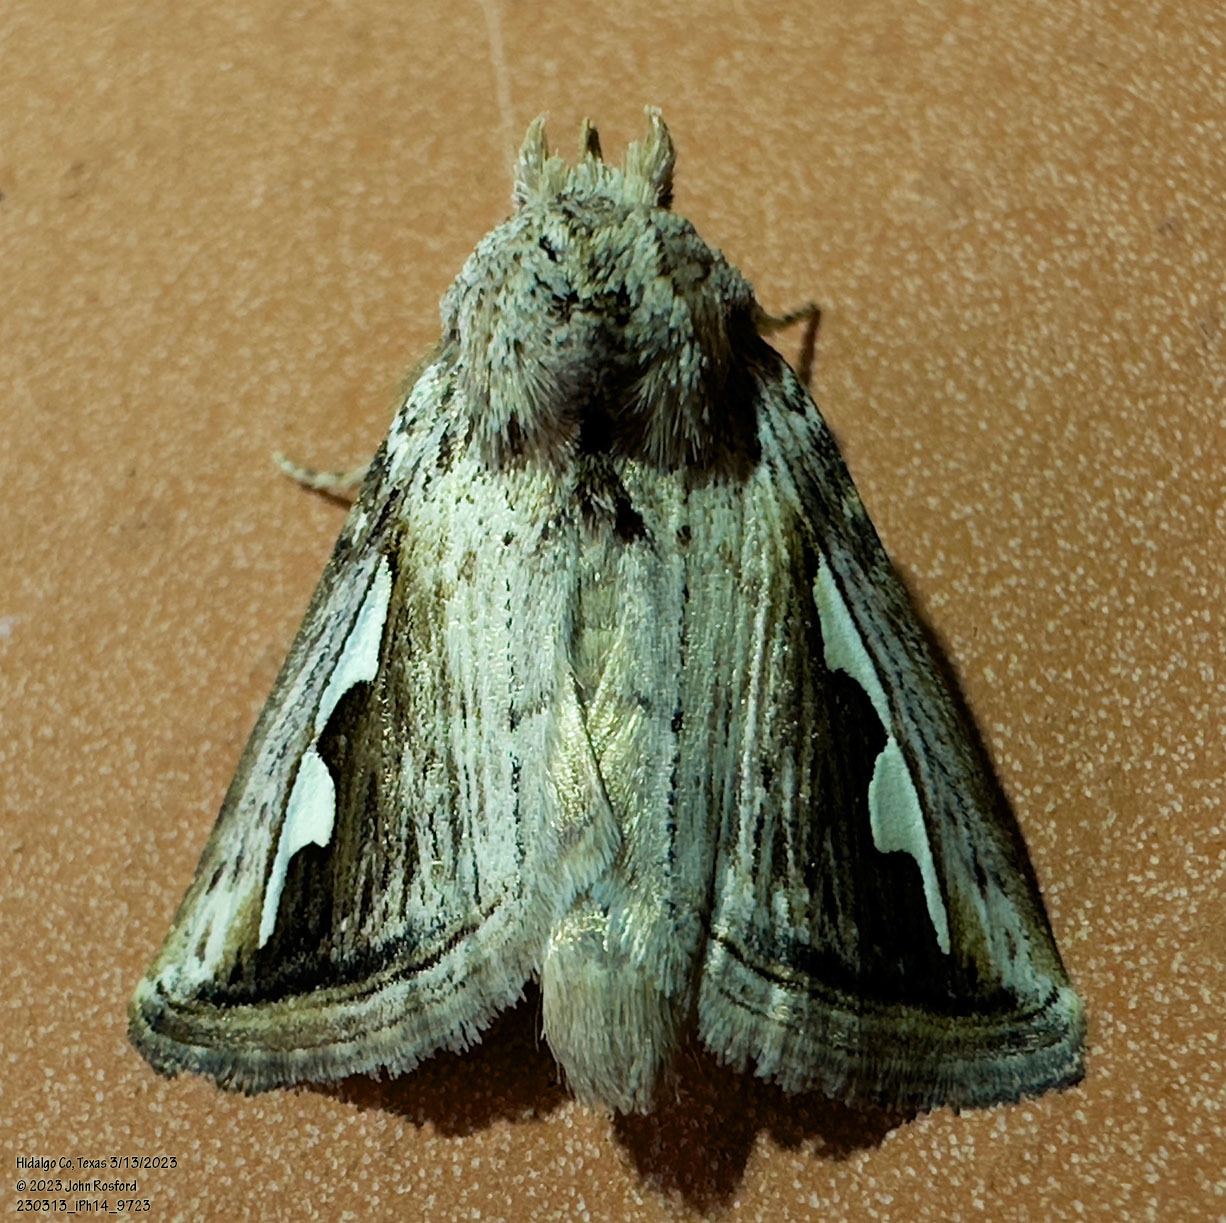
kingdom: Animalia
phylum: Arthropoda
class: Insecta
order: Lepidoptera
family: Notodontidae
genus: Didugua
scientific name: Didugua argentilinea
